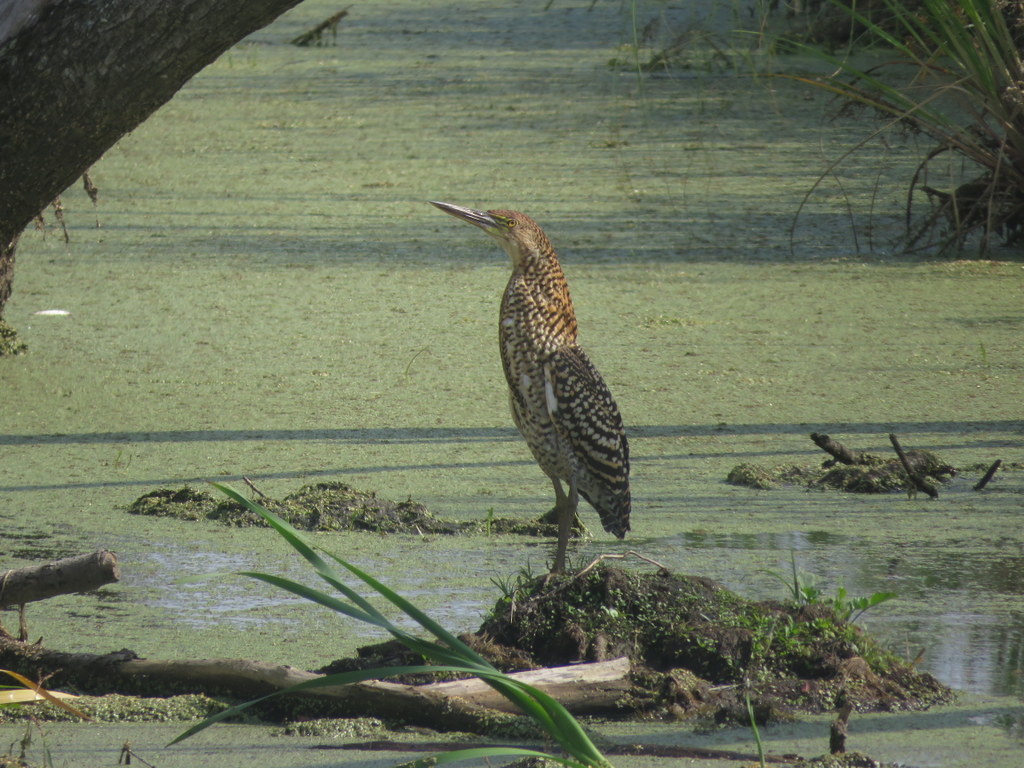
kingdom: Animalia
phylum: Chordata
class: Aves
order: Pelecaniformes
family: Ardeidae
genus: Tigrisoma
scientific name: Tigrisoma lineatum
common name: Rufescent tiger-heron
